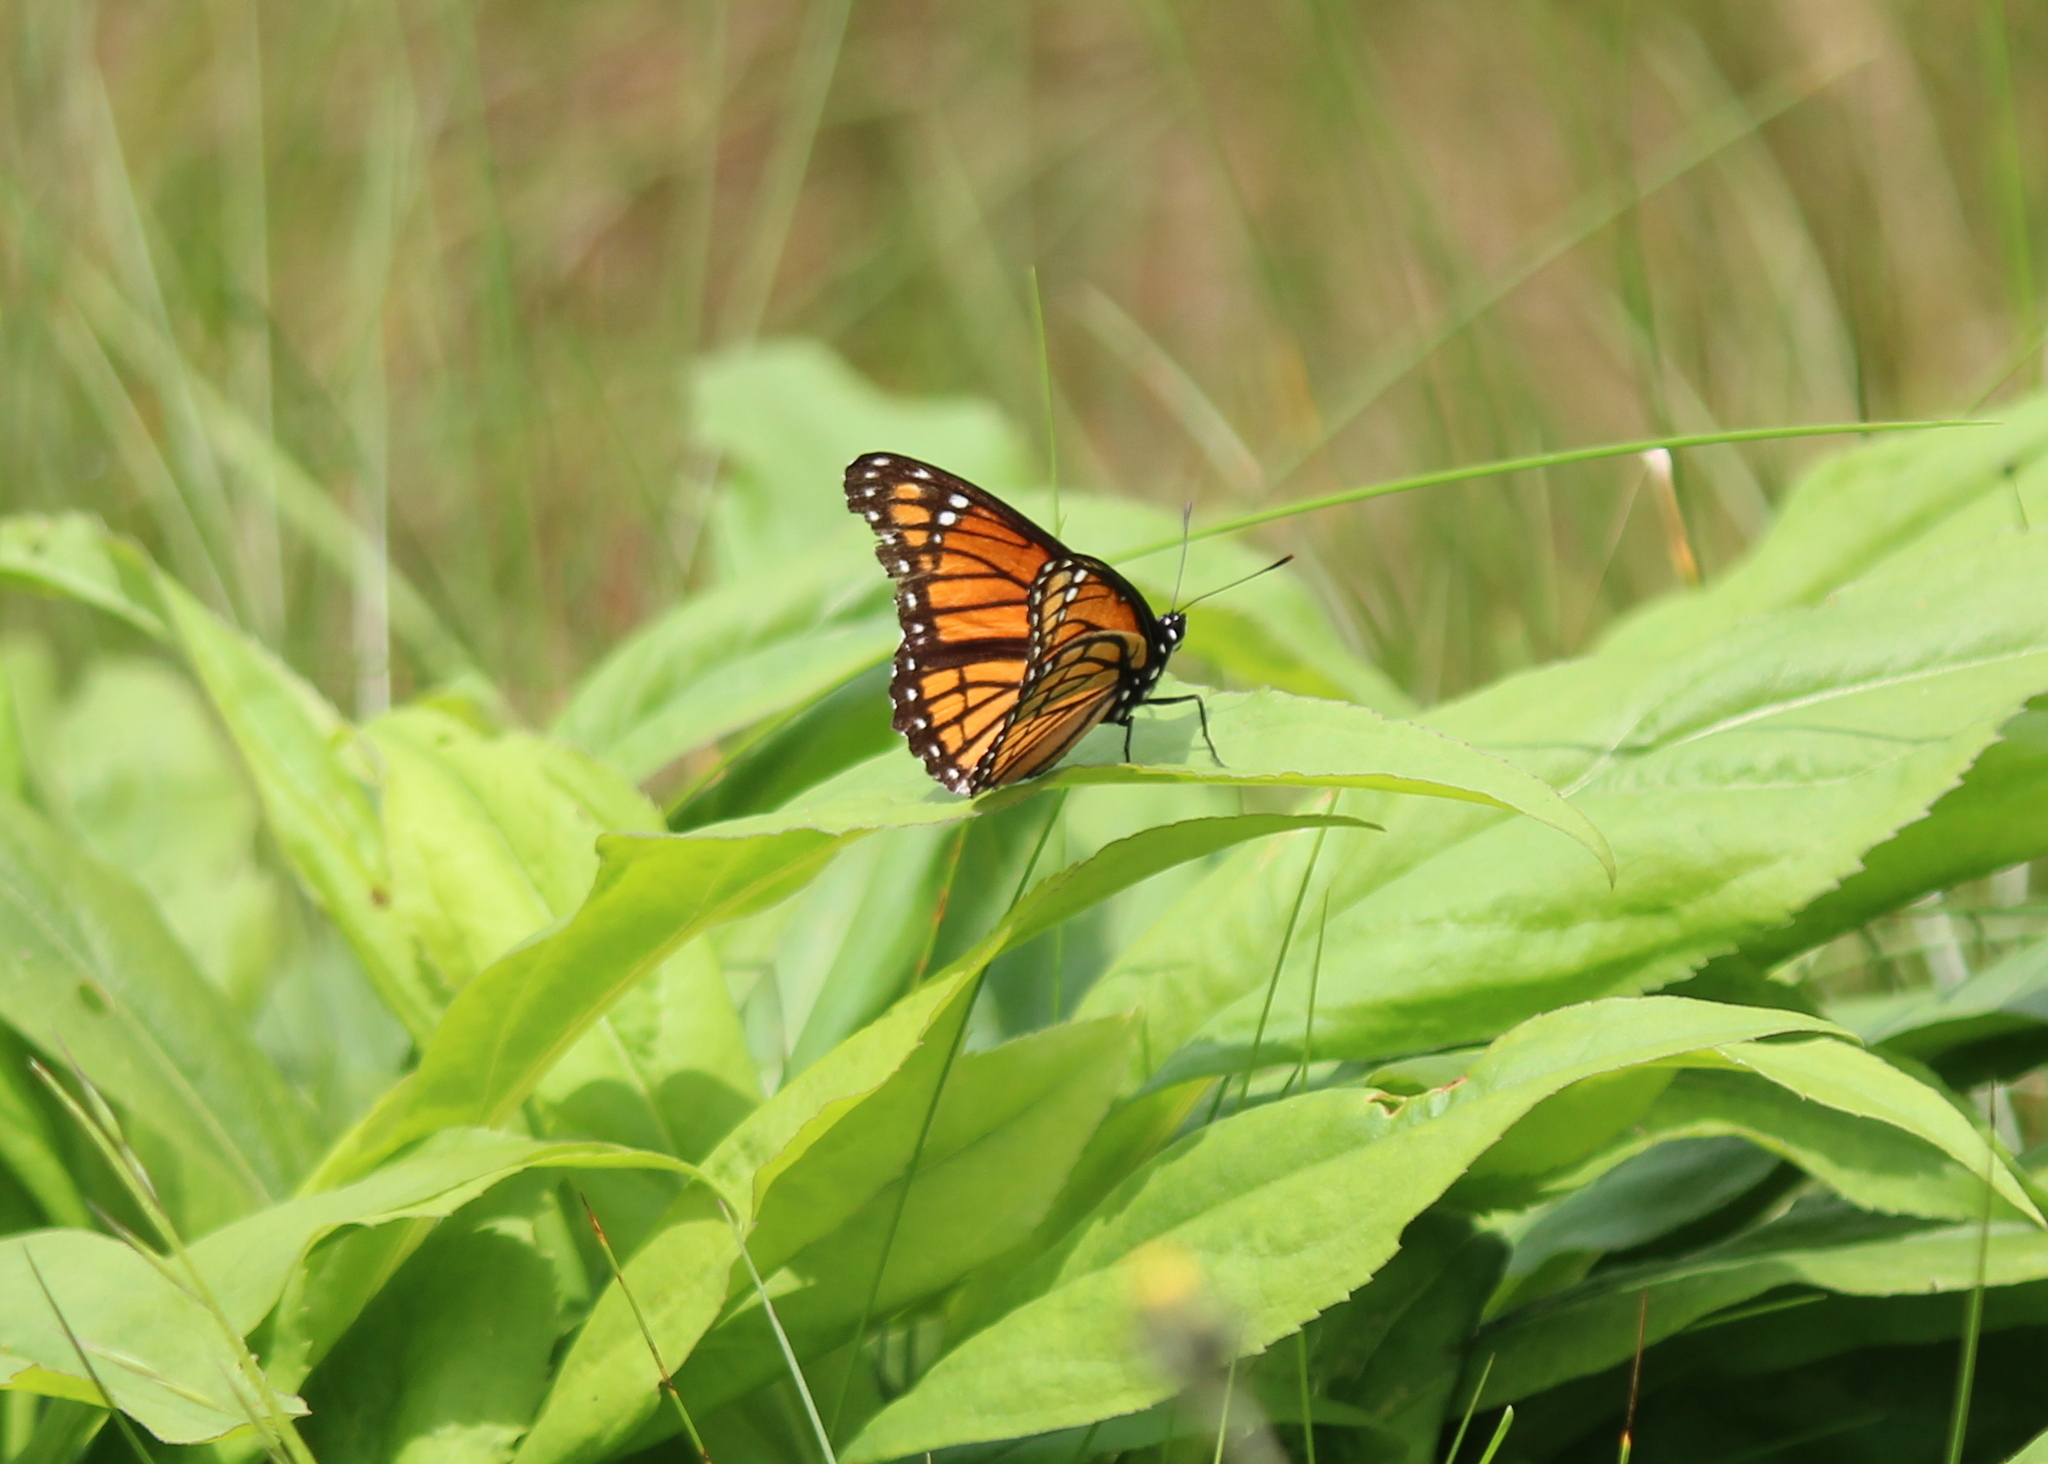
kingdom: Animalia
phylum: Arthropoda
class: Insecta
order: Lepidoptera
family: Nymphalidae
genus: Limenitis
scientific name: Limenitis archippus
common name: Viceroy
